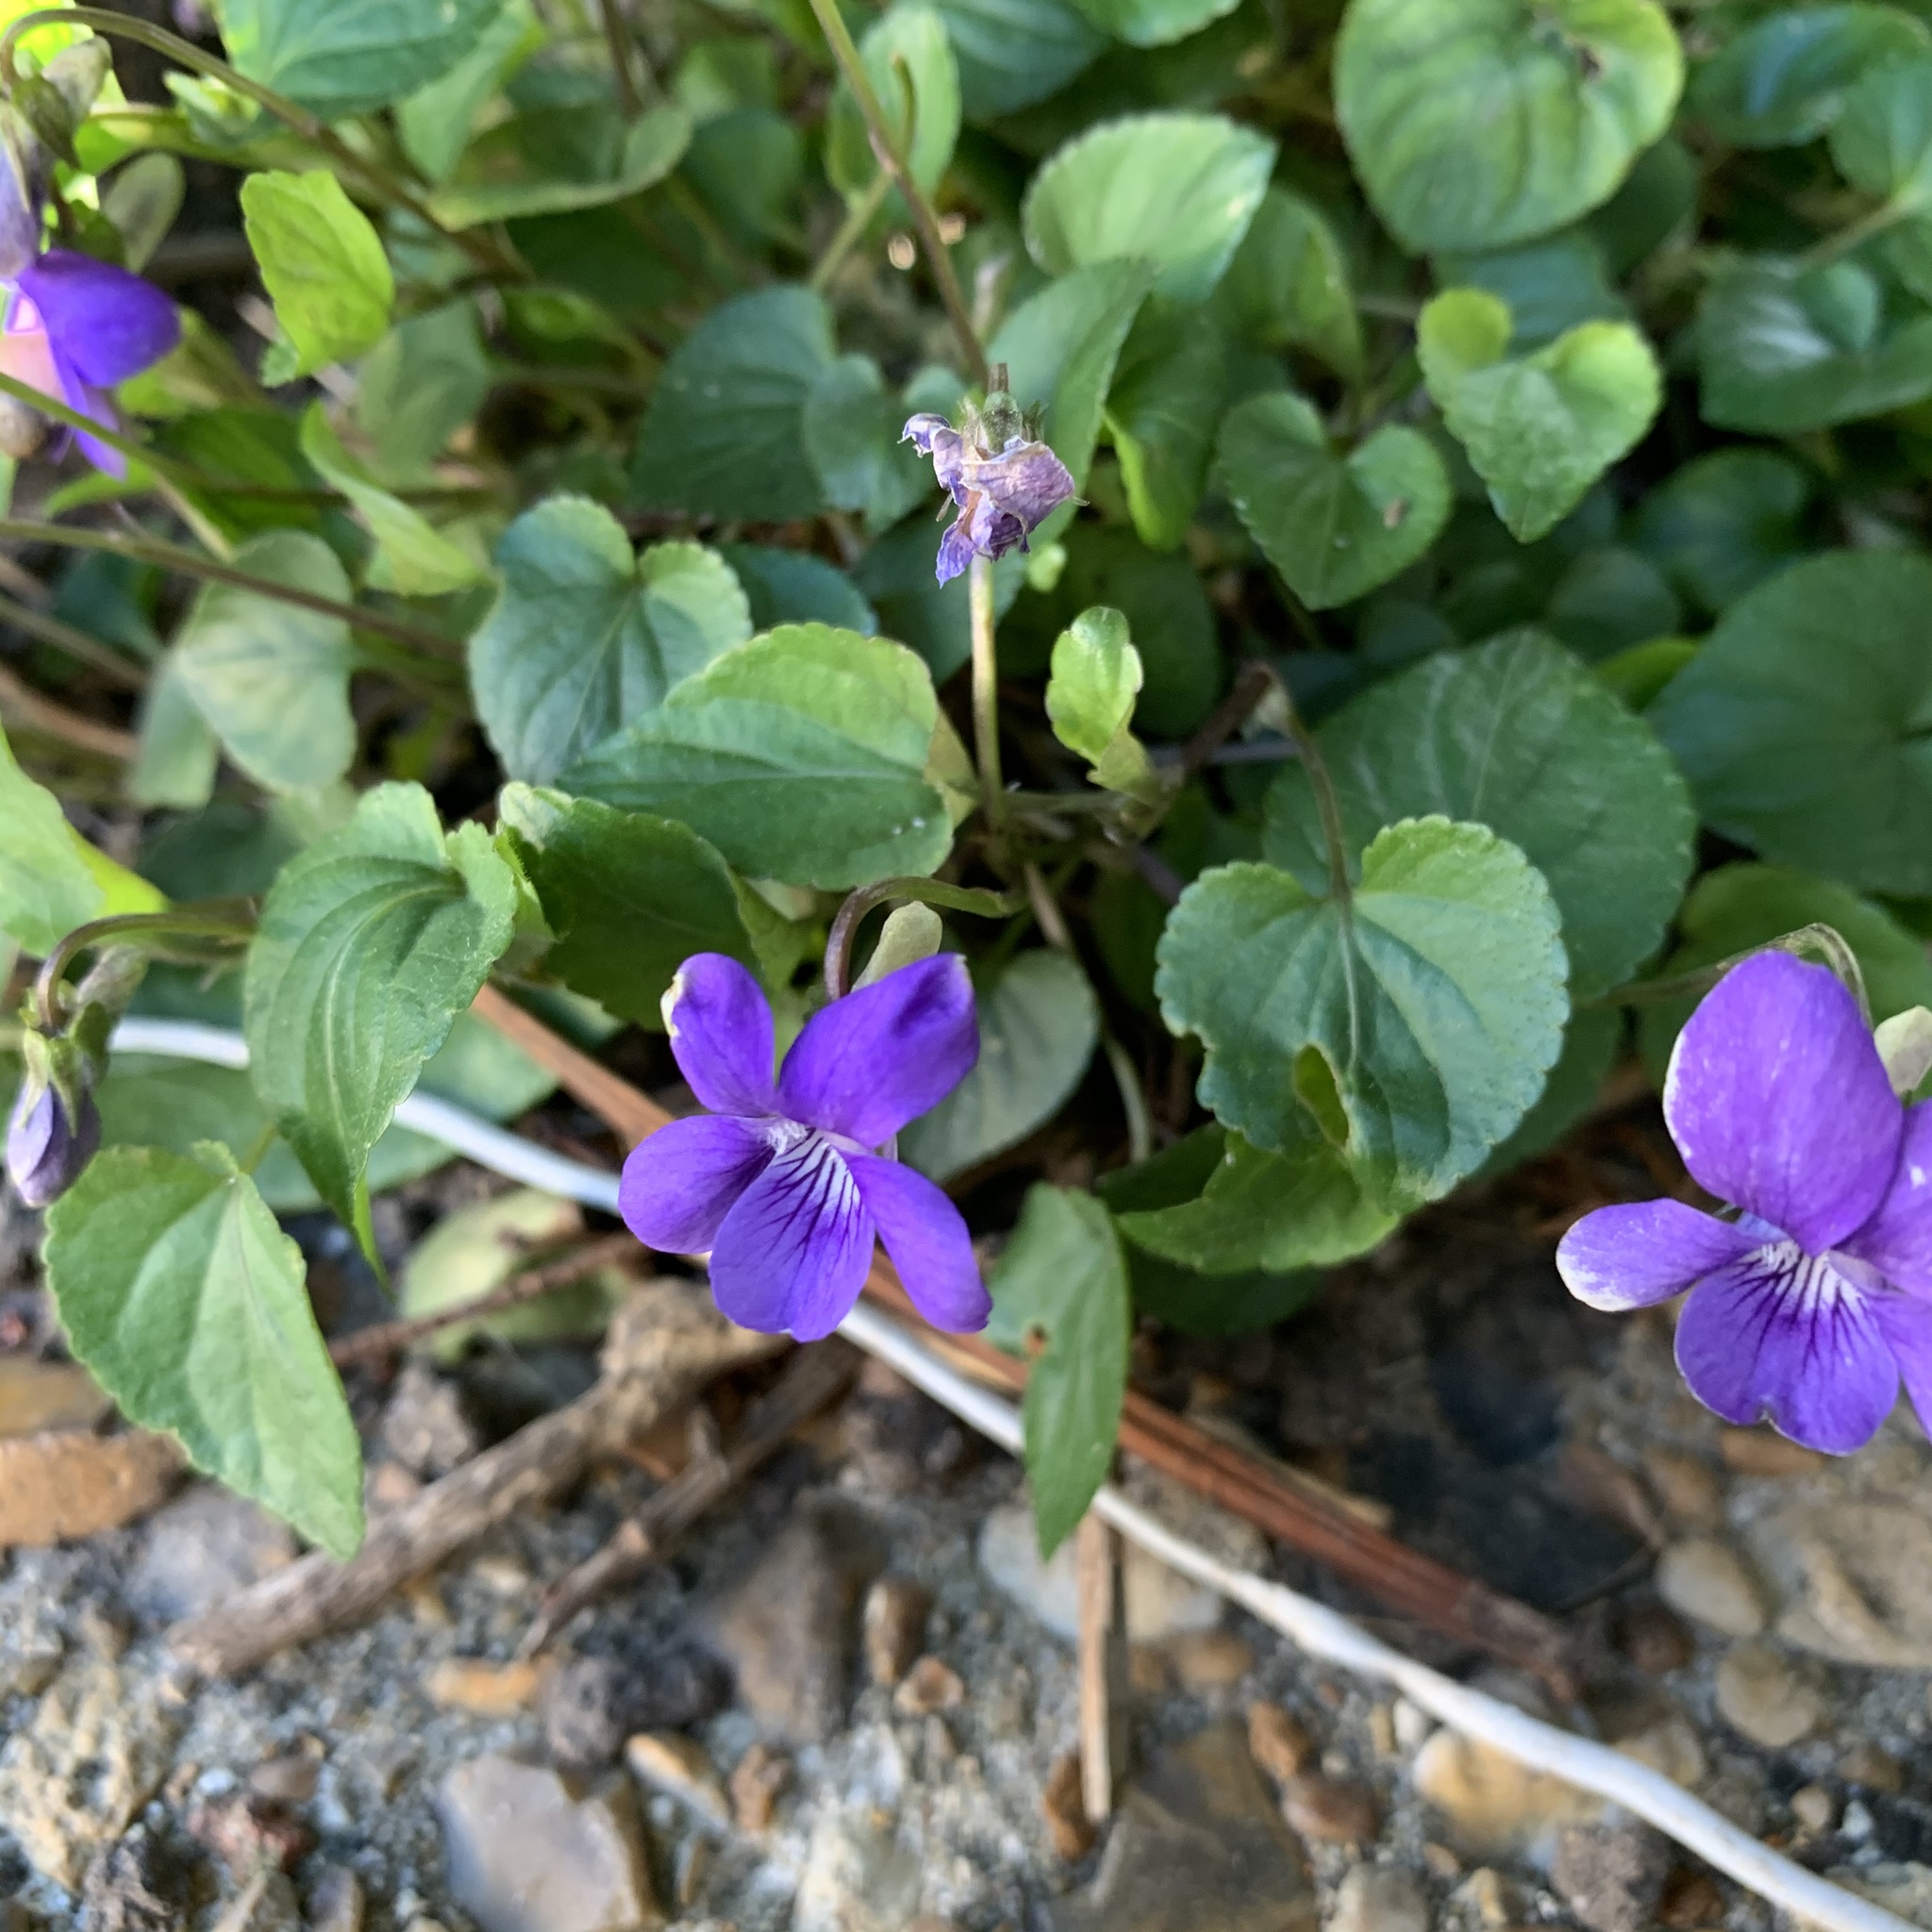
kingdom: Plantae
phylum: Tracheophyta
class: Magnoliopsida
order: Malpighiales
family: Violaceae
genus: Viola
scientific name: Viola riviniana
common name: Common dog-violet
